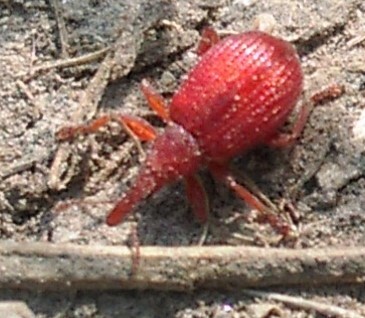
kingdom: Animalia
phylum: Arthropoda
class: Insecta
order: Coleoptera
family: Apionidae
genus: Apion
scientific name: Apion frumentarium
